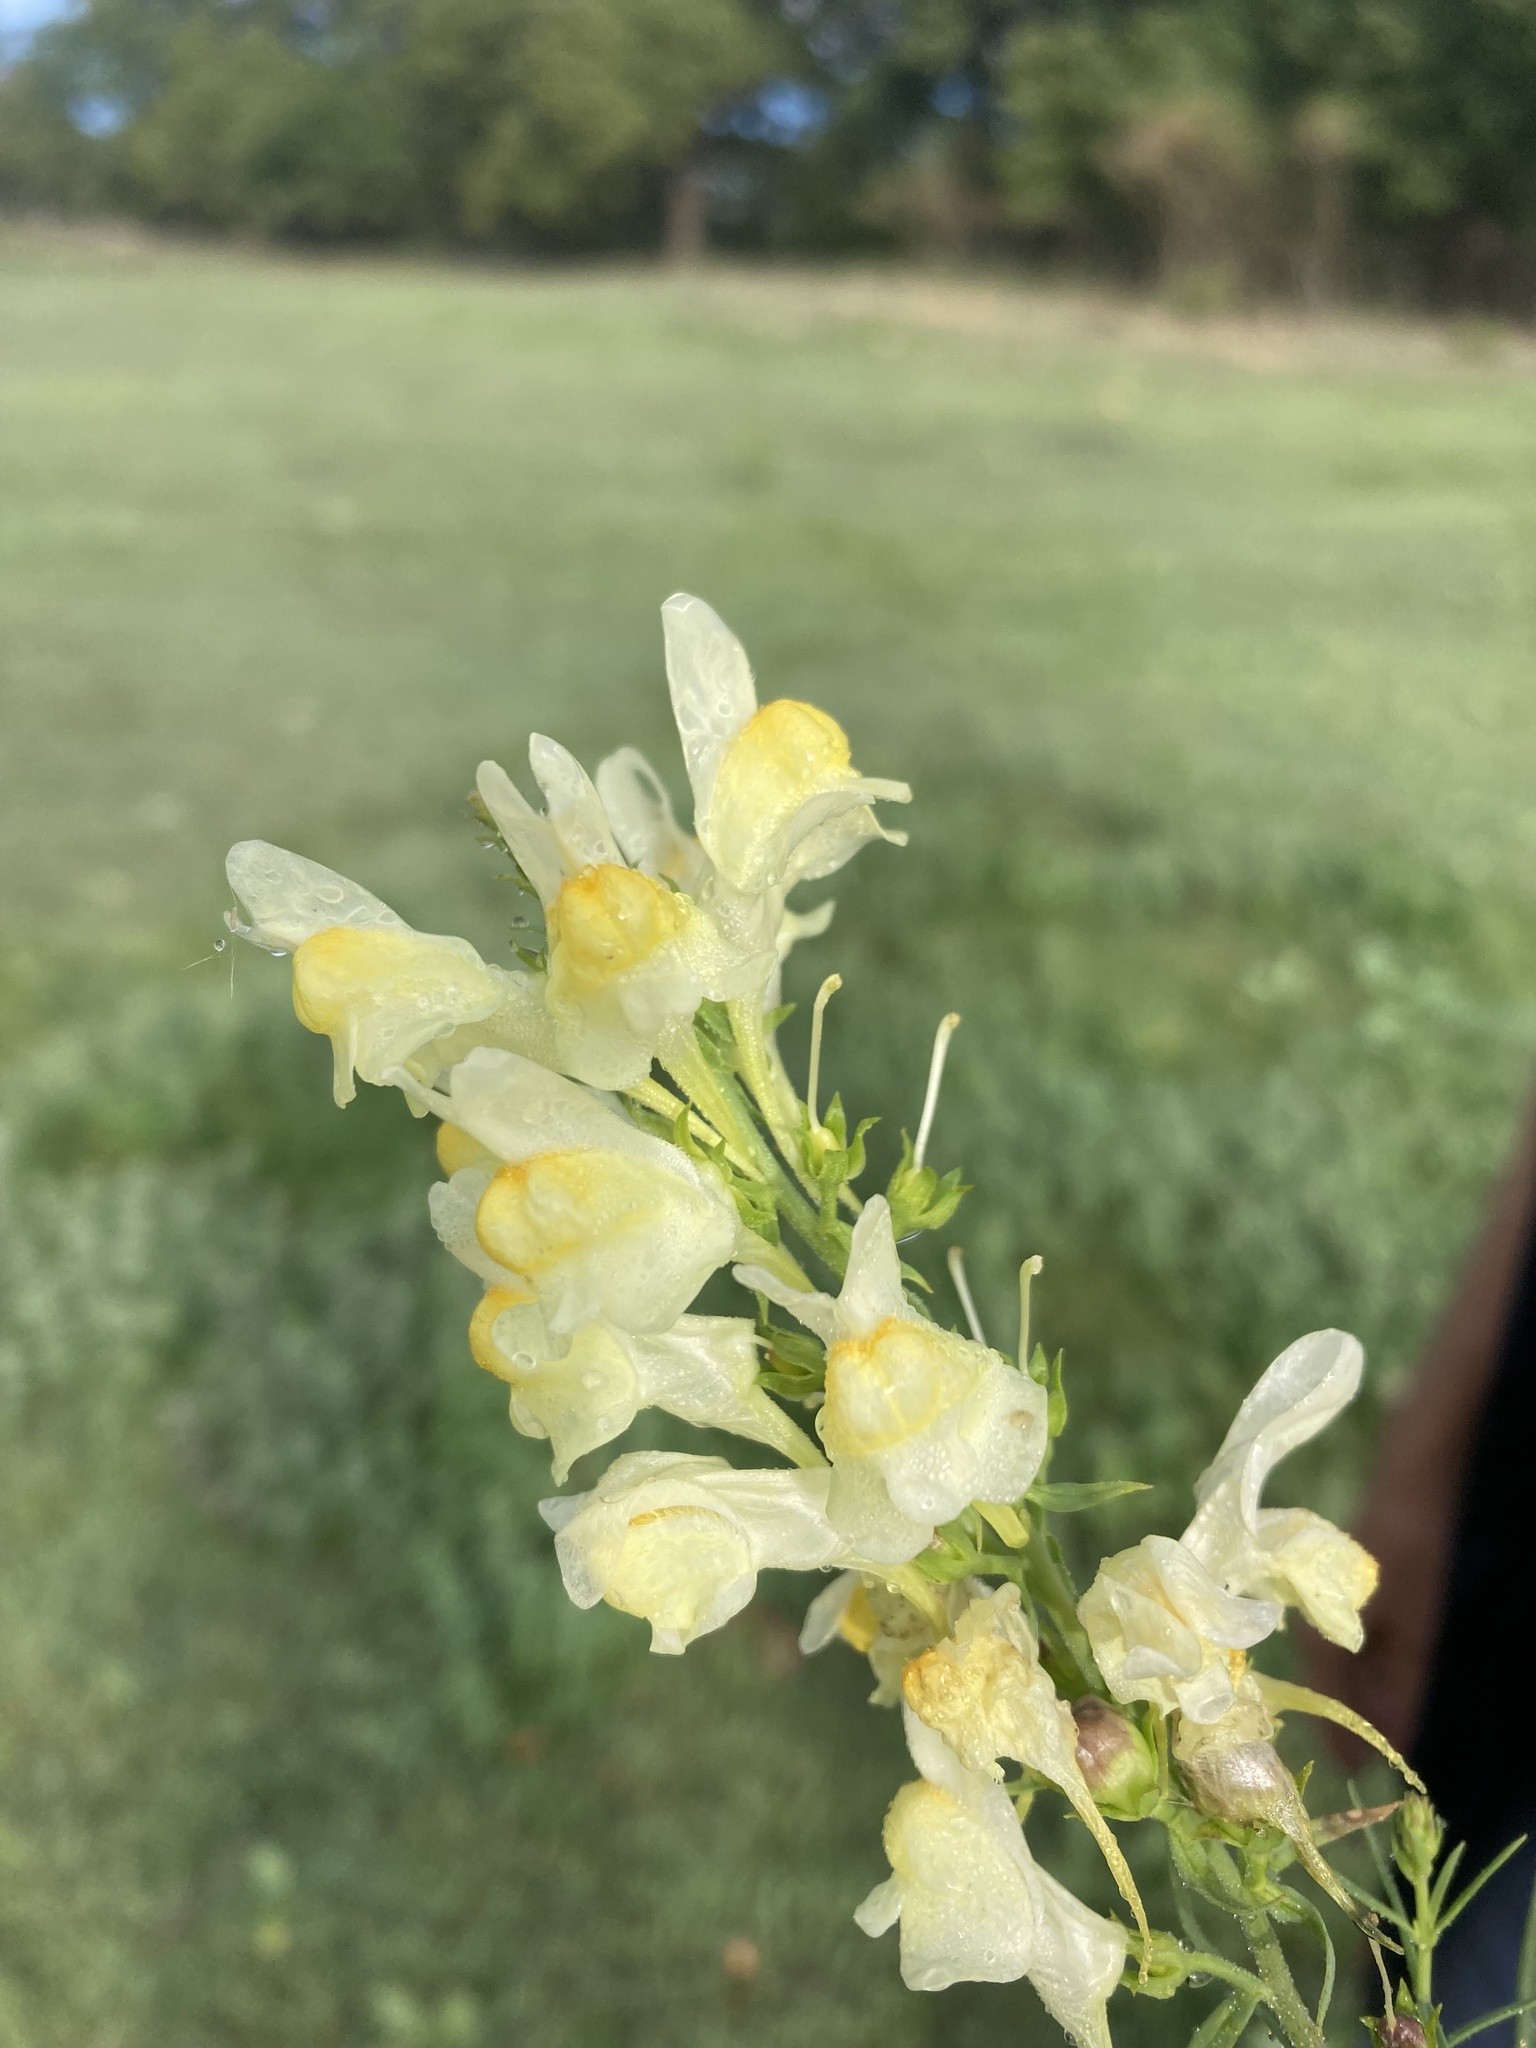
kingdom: Plantae
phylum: Tracheophyta
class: Magnoliopsida
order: Lamiales
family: Plantaginaceae
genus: Linaria
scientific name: Linaria vulgaris
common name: Butter and eggs
